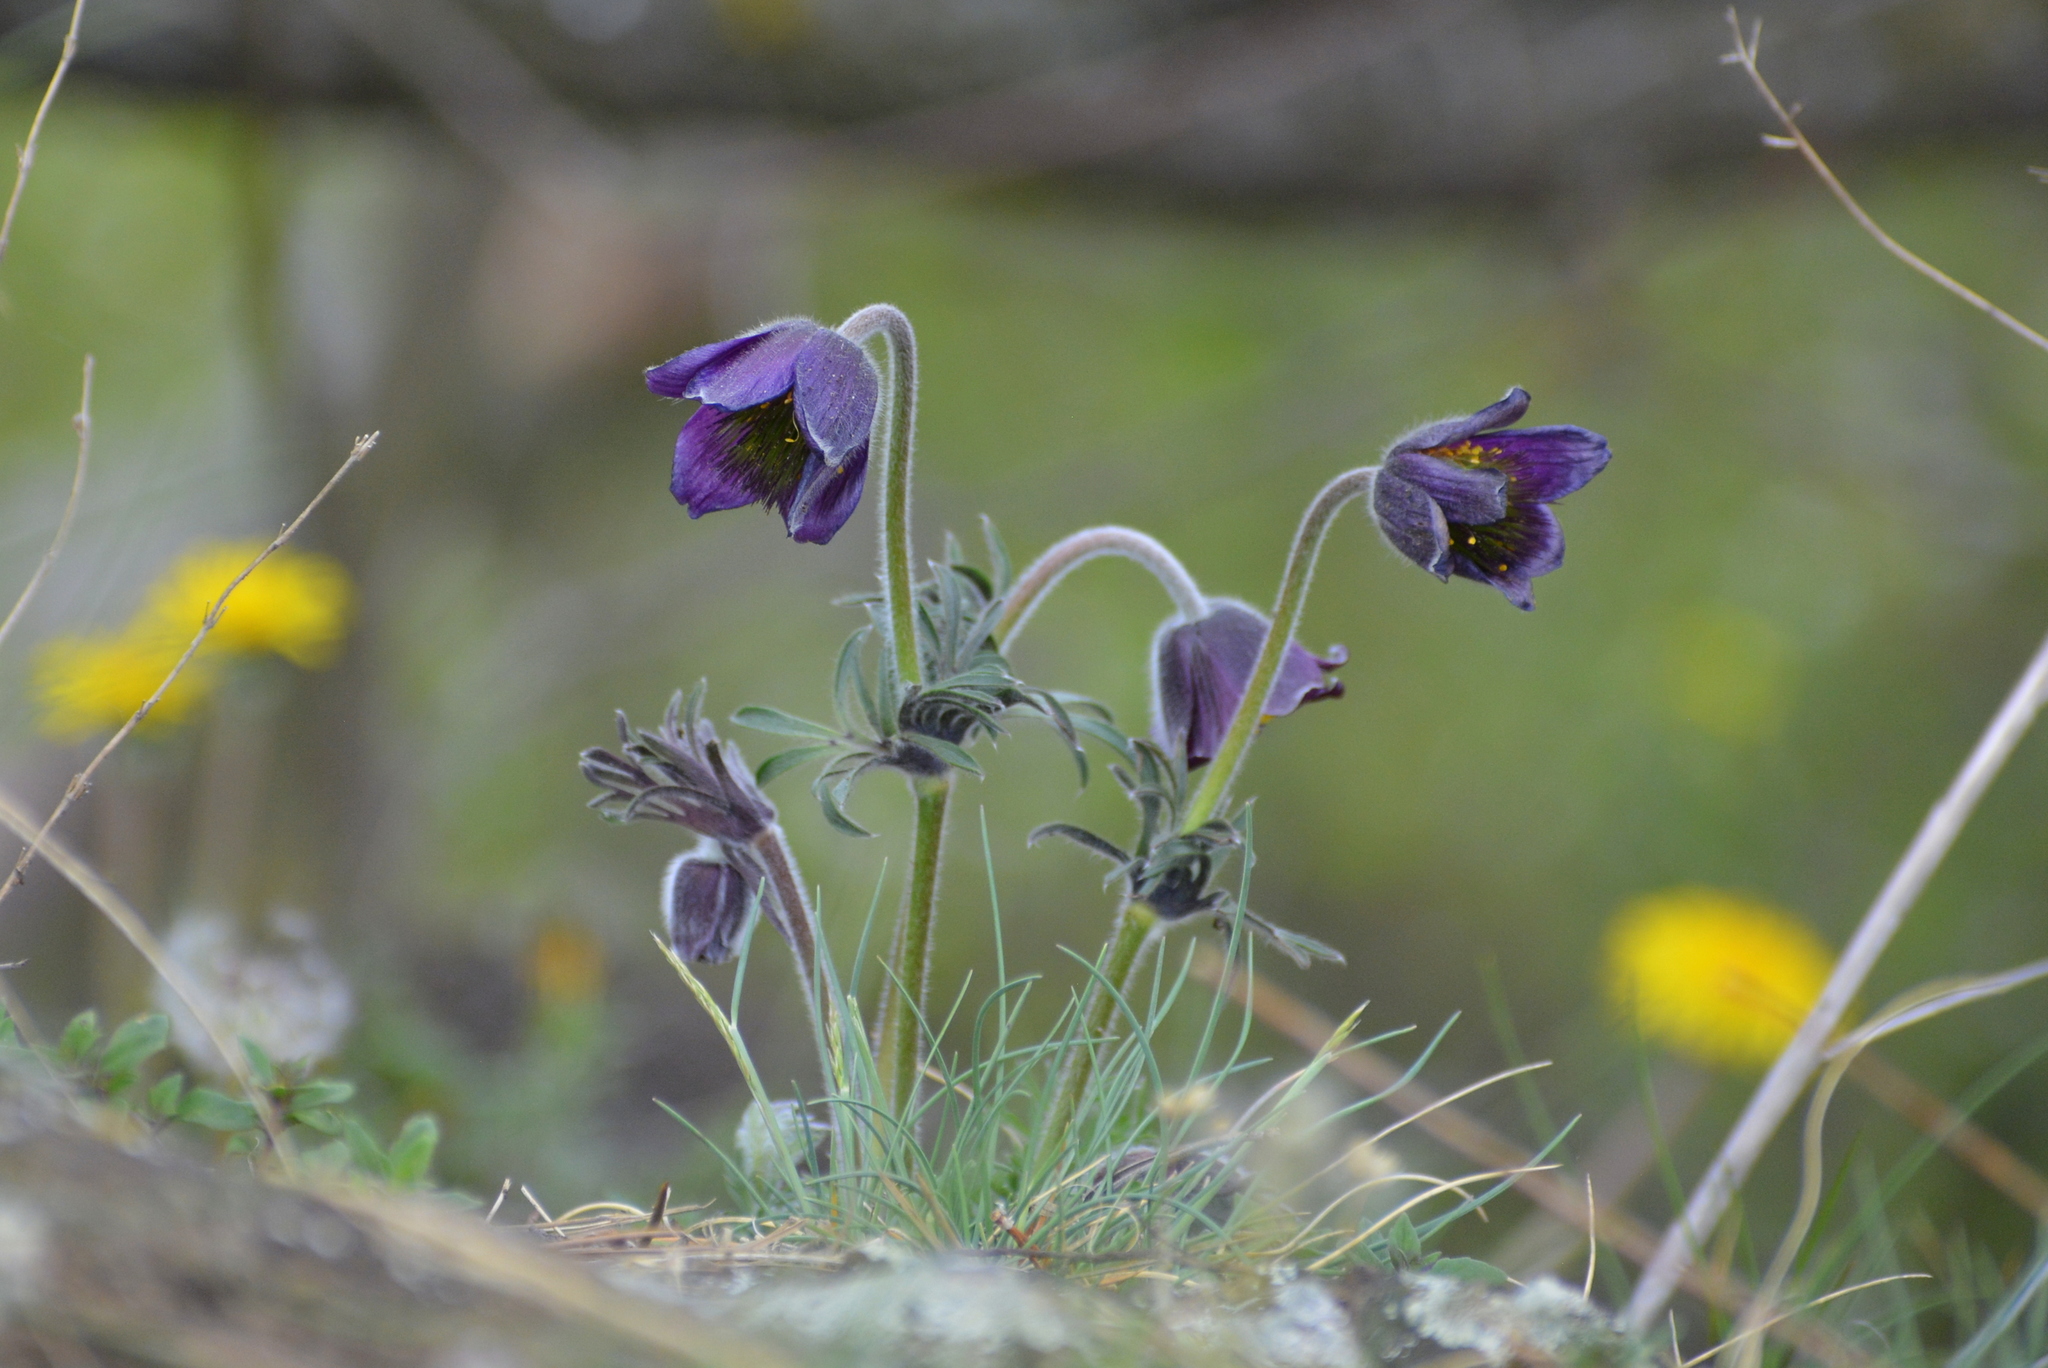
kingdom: Plantae
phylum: Tracheophyta
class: Magnoliopsida
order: Ranunculales
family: Ranunculaceae
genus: Pulsatilla
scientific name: Pulsatilla pratensis
